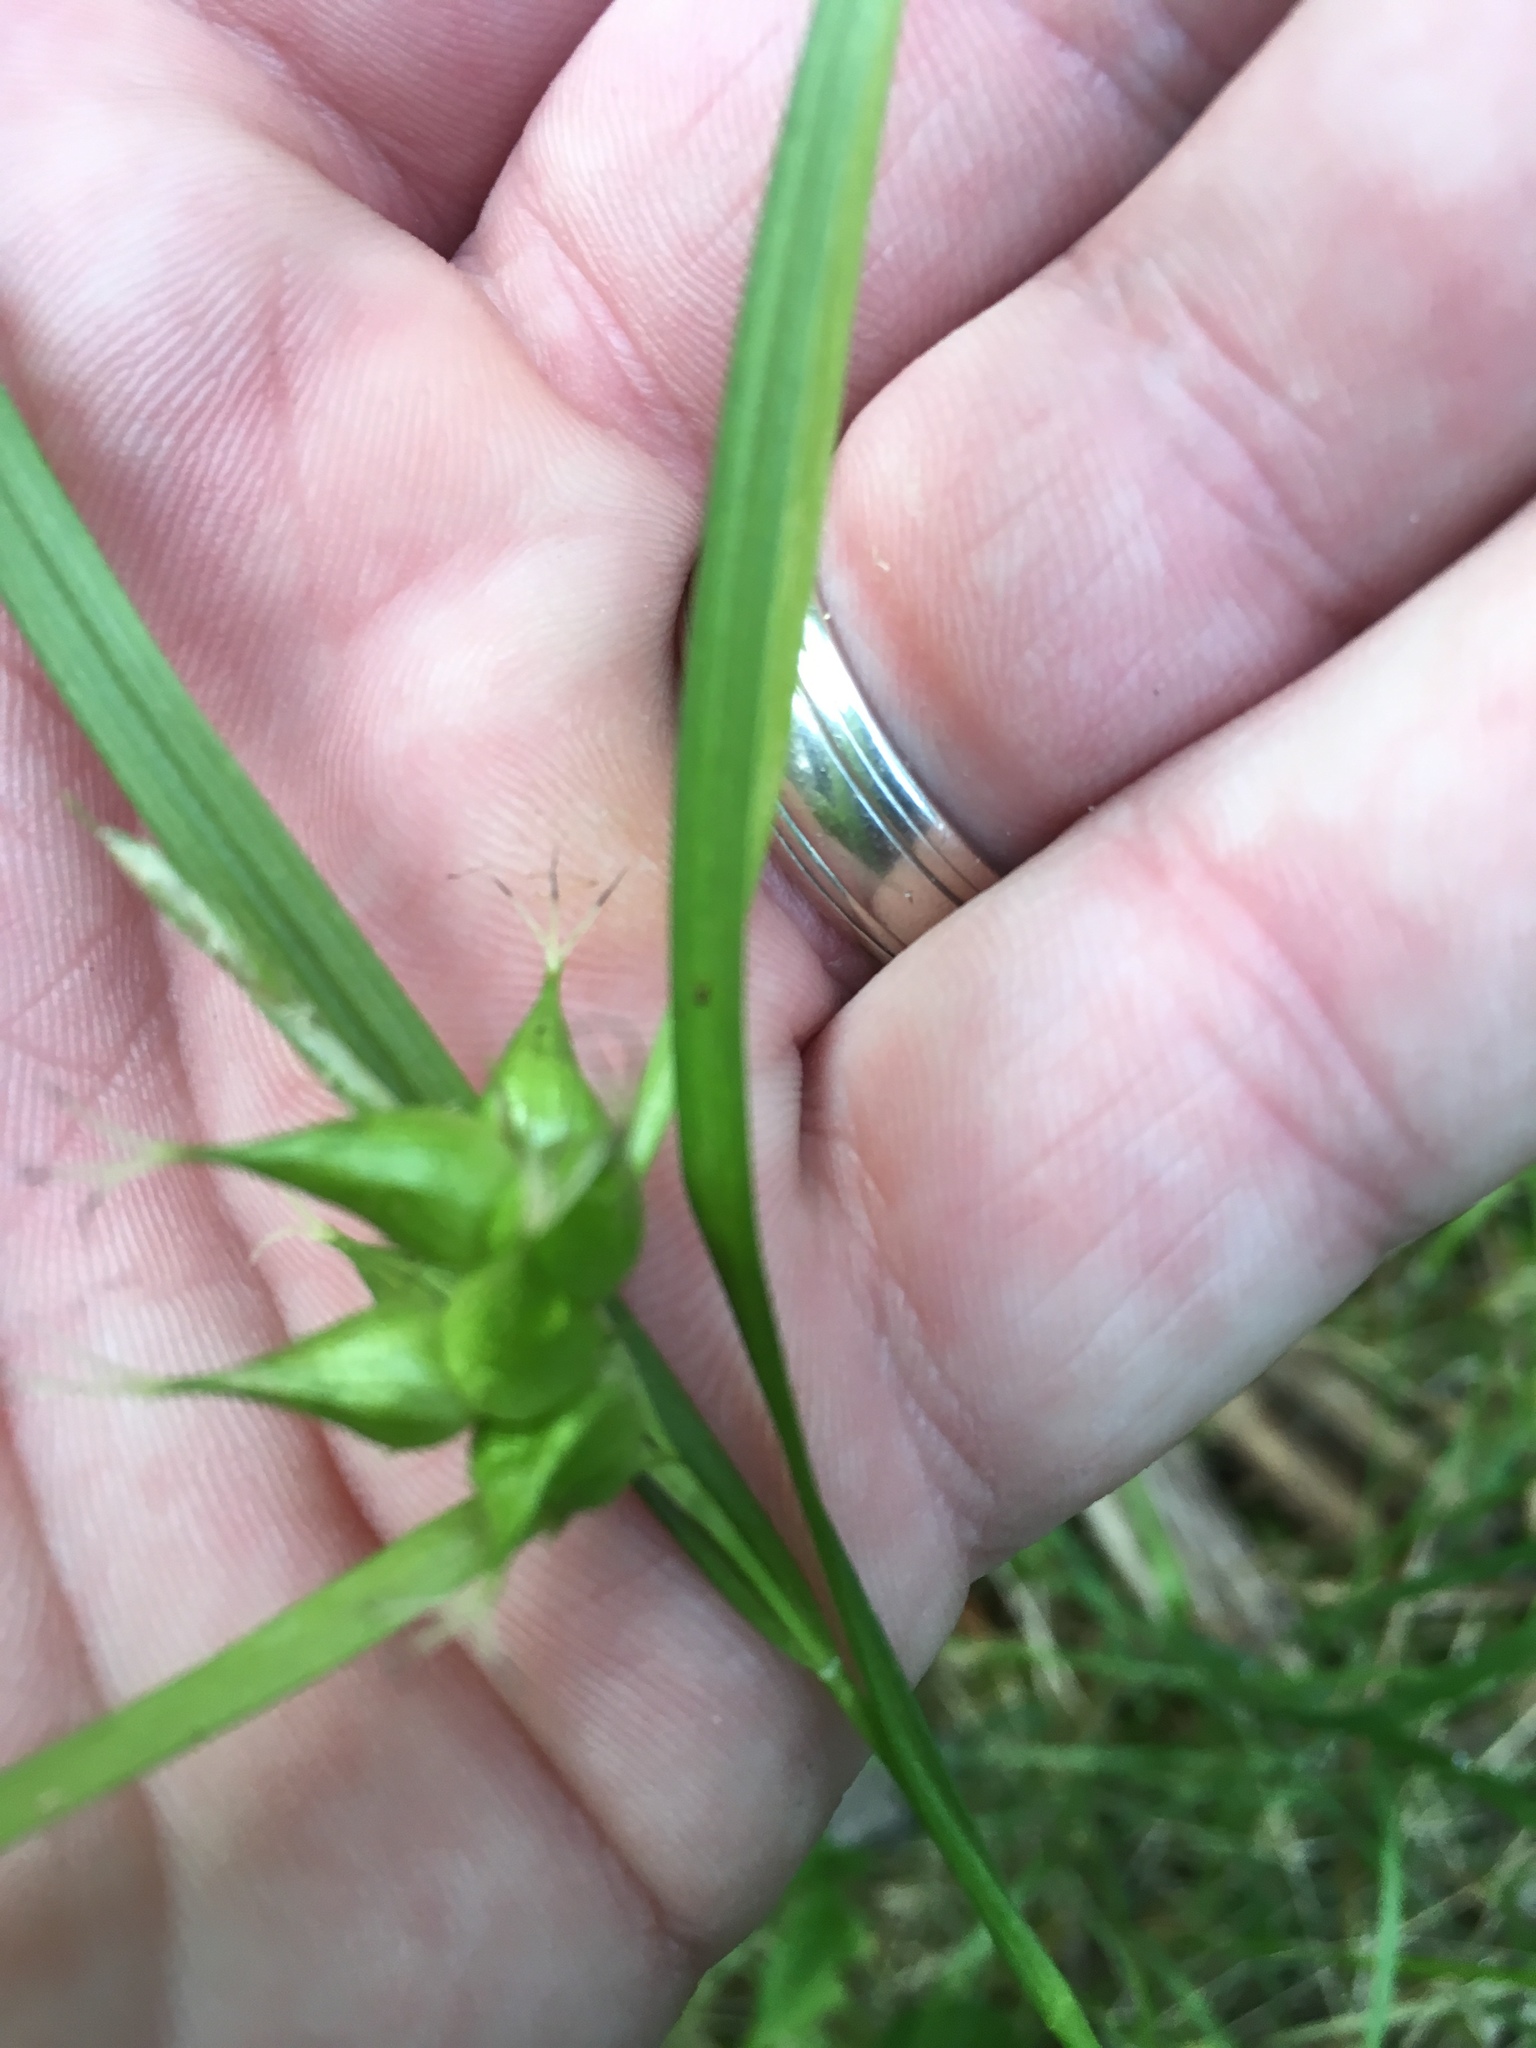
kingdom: Plantae
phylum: Tracheophyta
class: Liliopsida
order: Poales
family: Cyperaceae
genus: Carex
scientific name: Carex intumescens
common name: Greater bladder sedge
